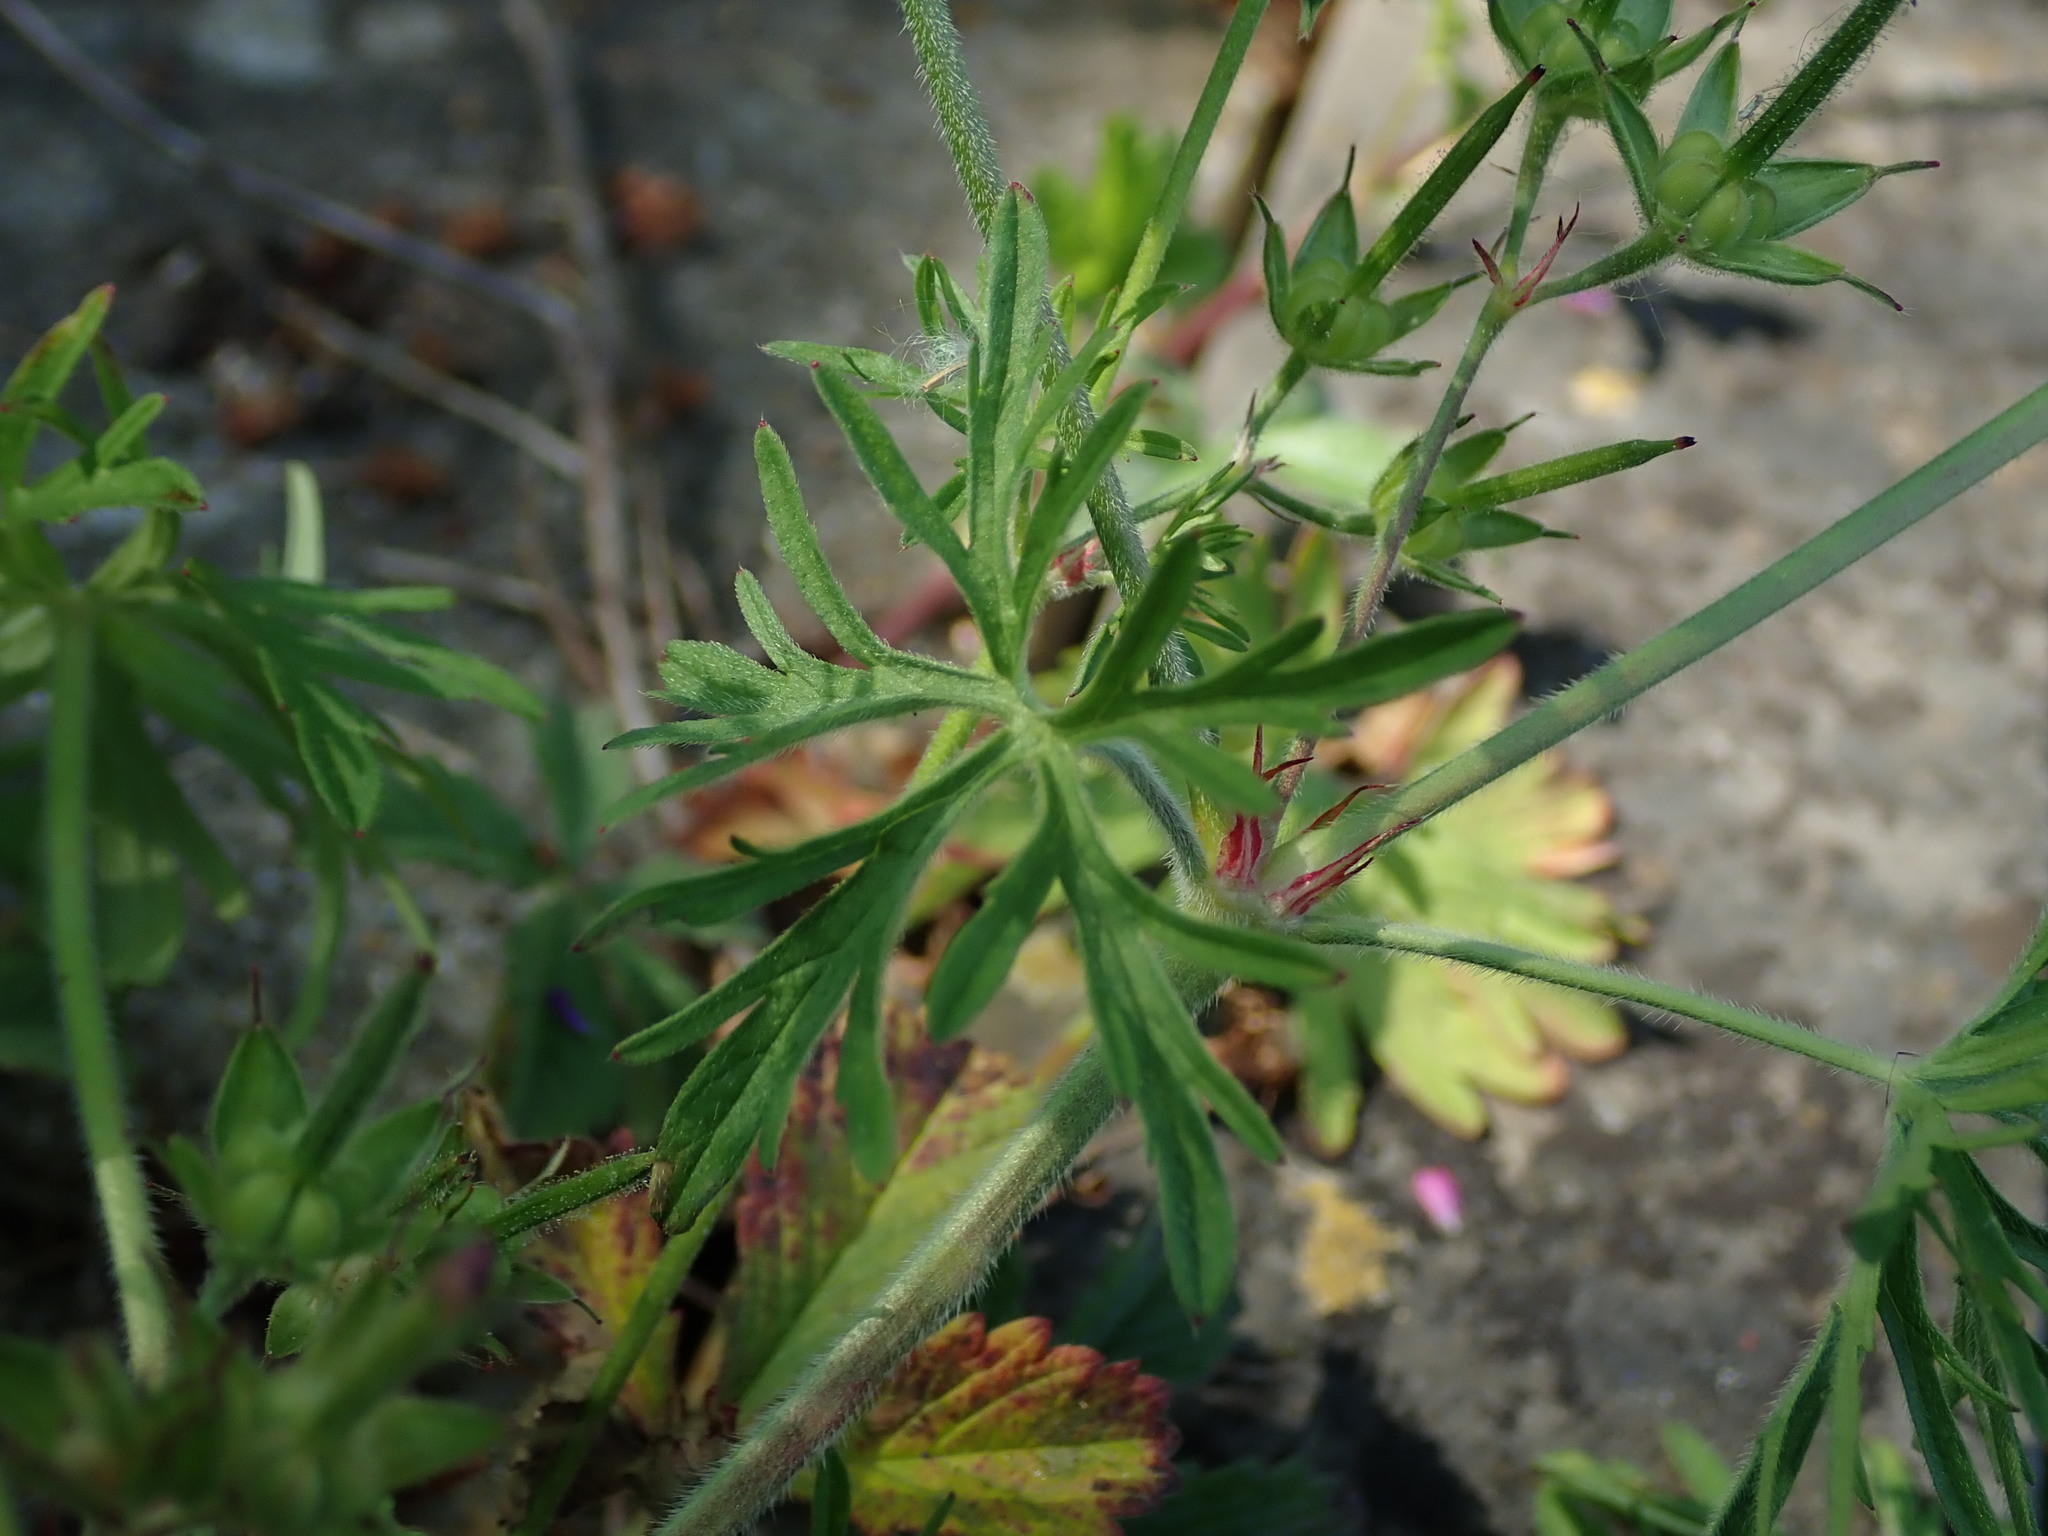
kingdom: Plantae
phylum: Tracheophyta
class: Magnoliopsida
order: Geraniales
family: Geraniaceae
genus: Geranium
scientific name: Geranium dissectum
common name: Cut-leaved crane's-bill
